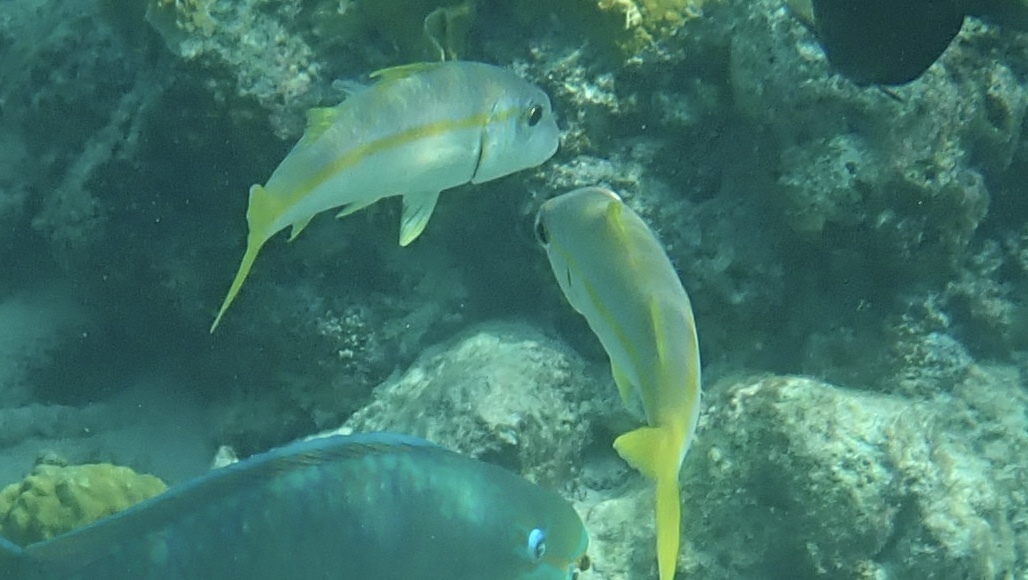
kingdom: Animalia
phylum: Chordata
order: Perciformes
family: Mullidae
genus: Mulloidichthys
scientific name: Mulloidichthys martinicus
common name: Yellow goatfish
